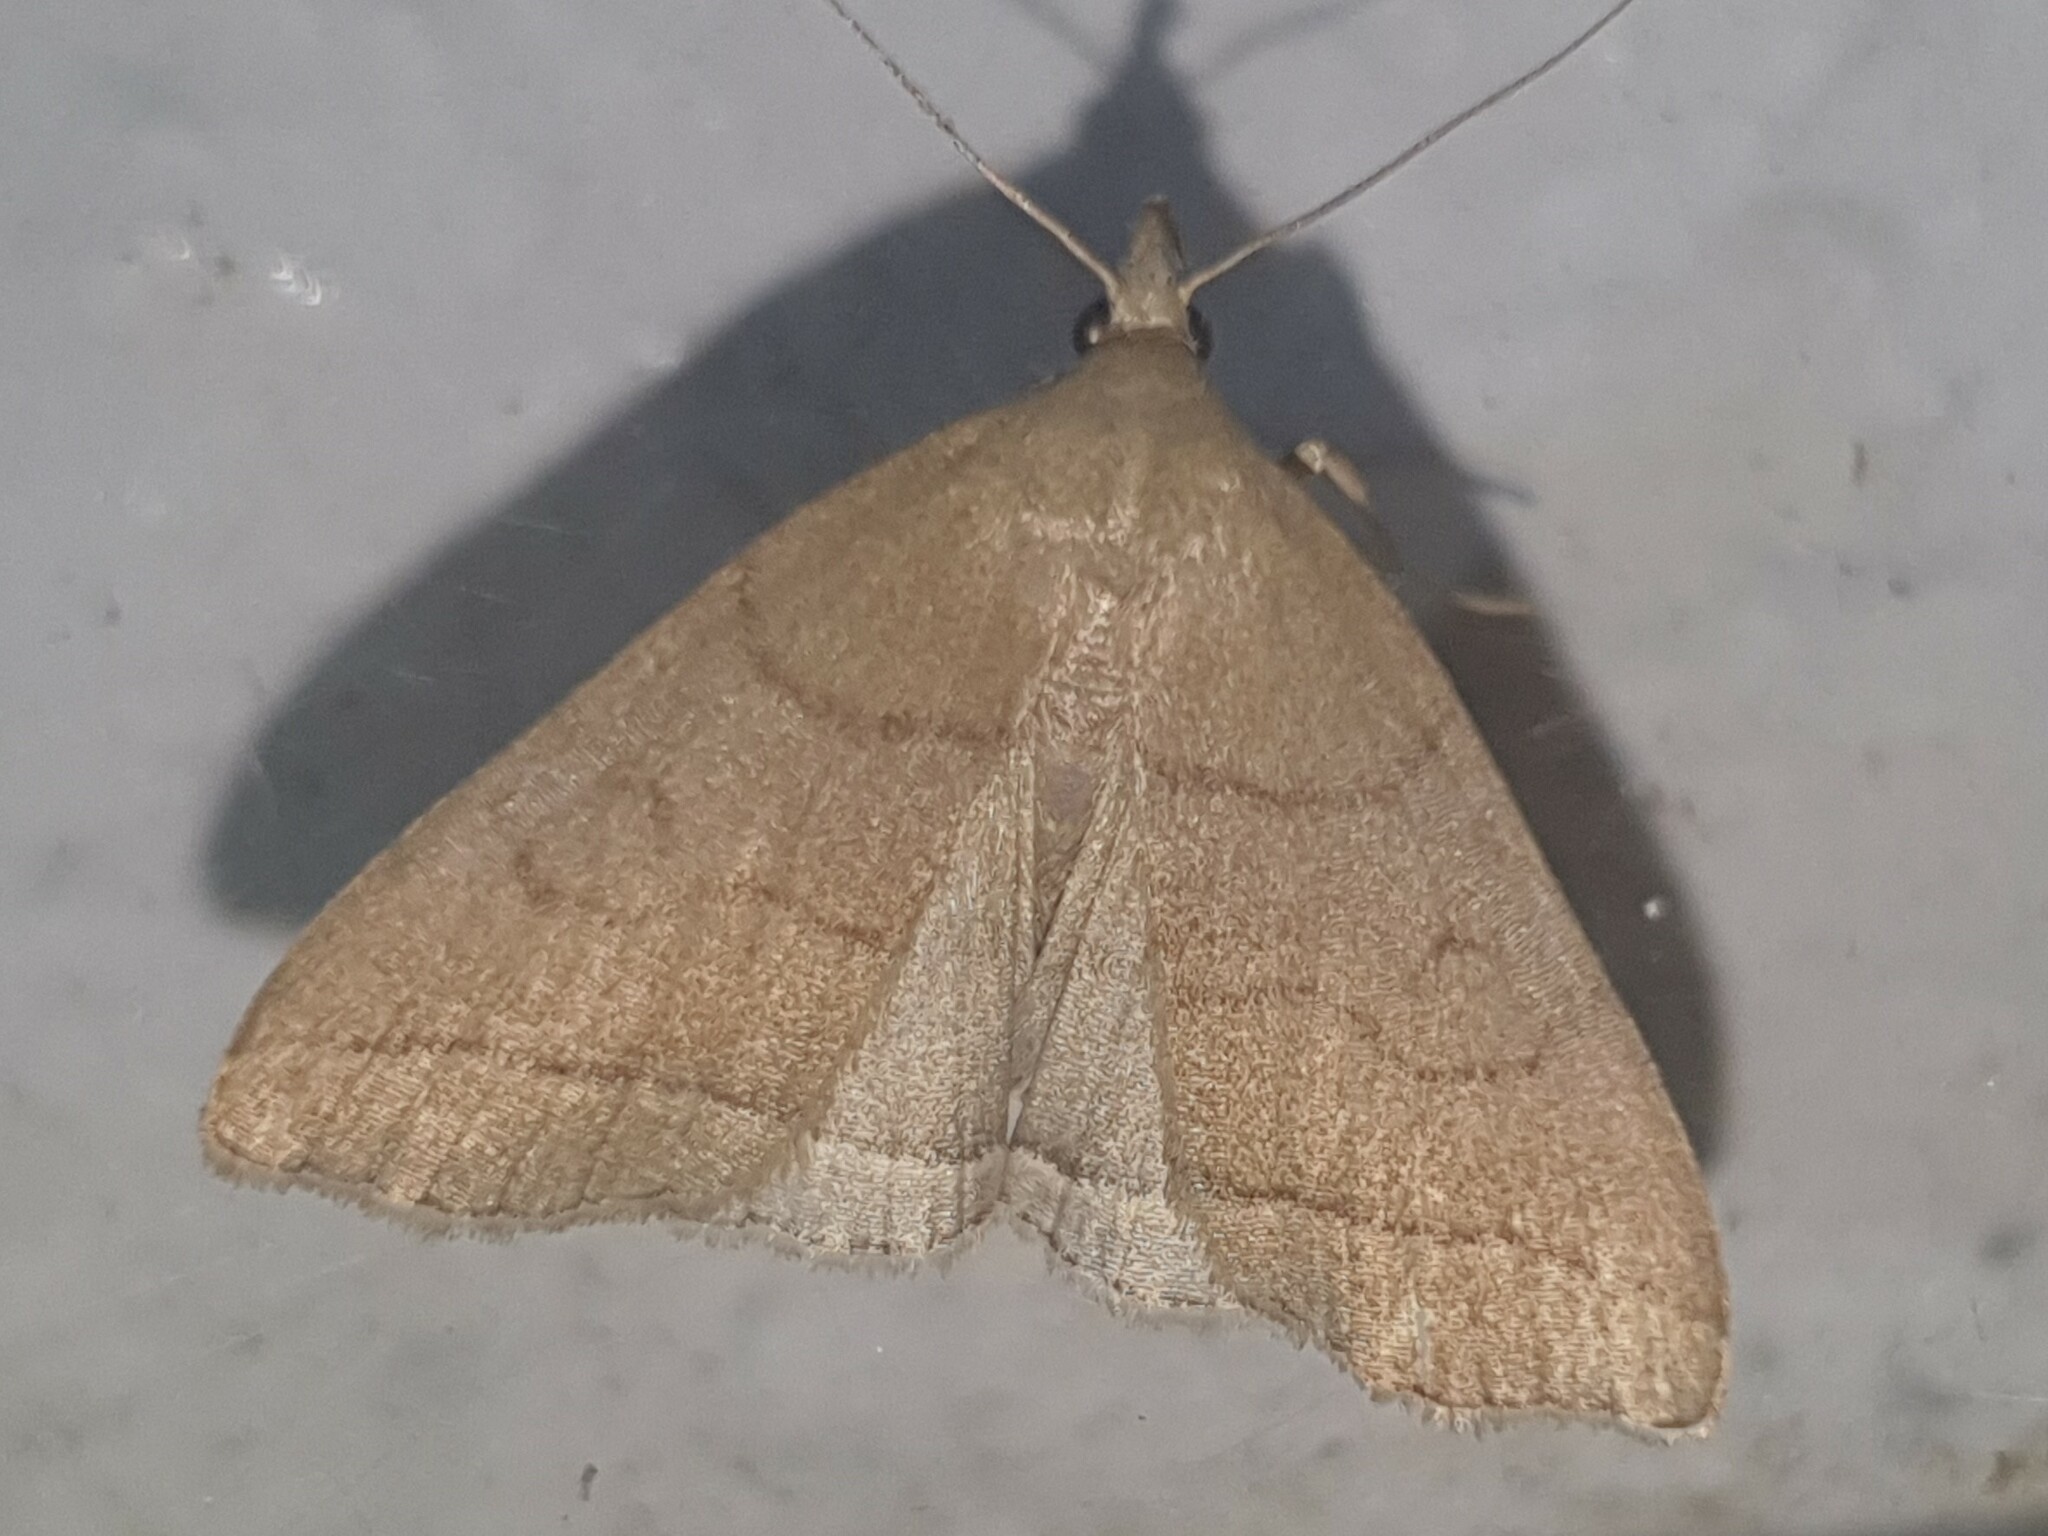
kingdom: Animalia
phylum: Arthropoda
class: Insecta
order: Lepidoptera
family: Erebidae
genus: Herminia
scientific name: Herminia tarsipennalis
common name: Fan-foot
